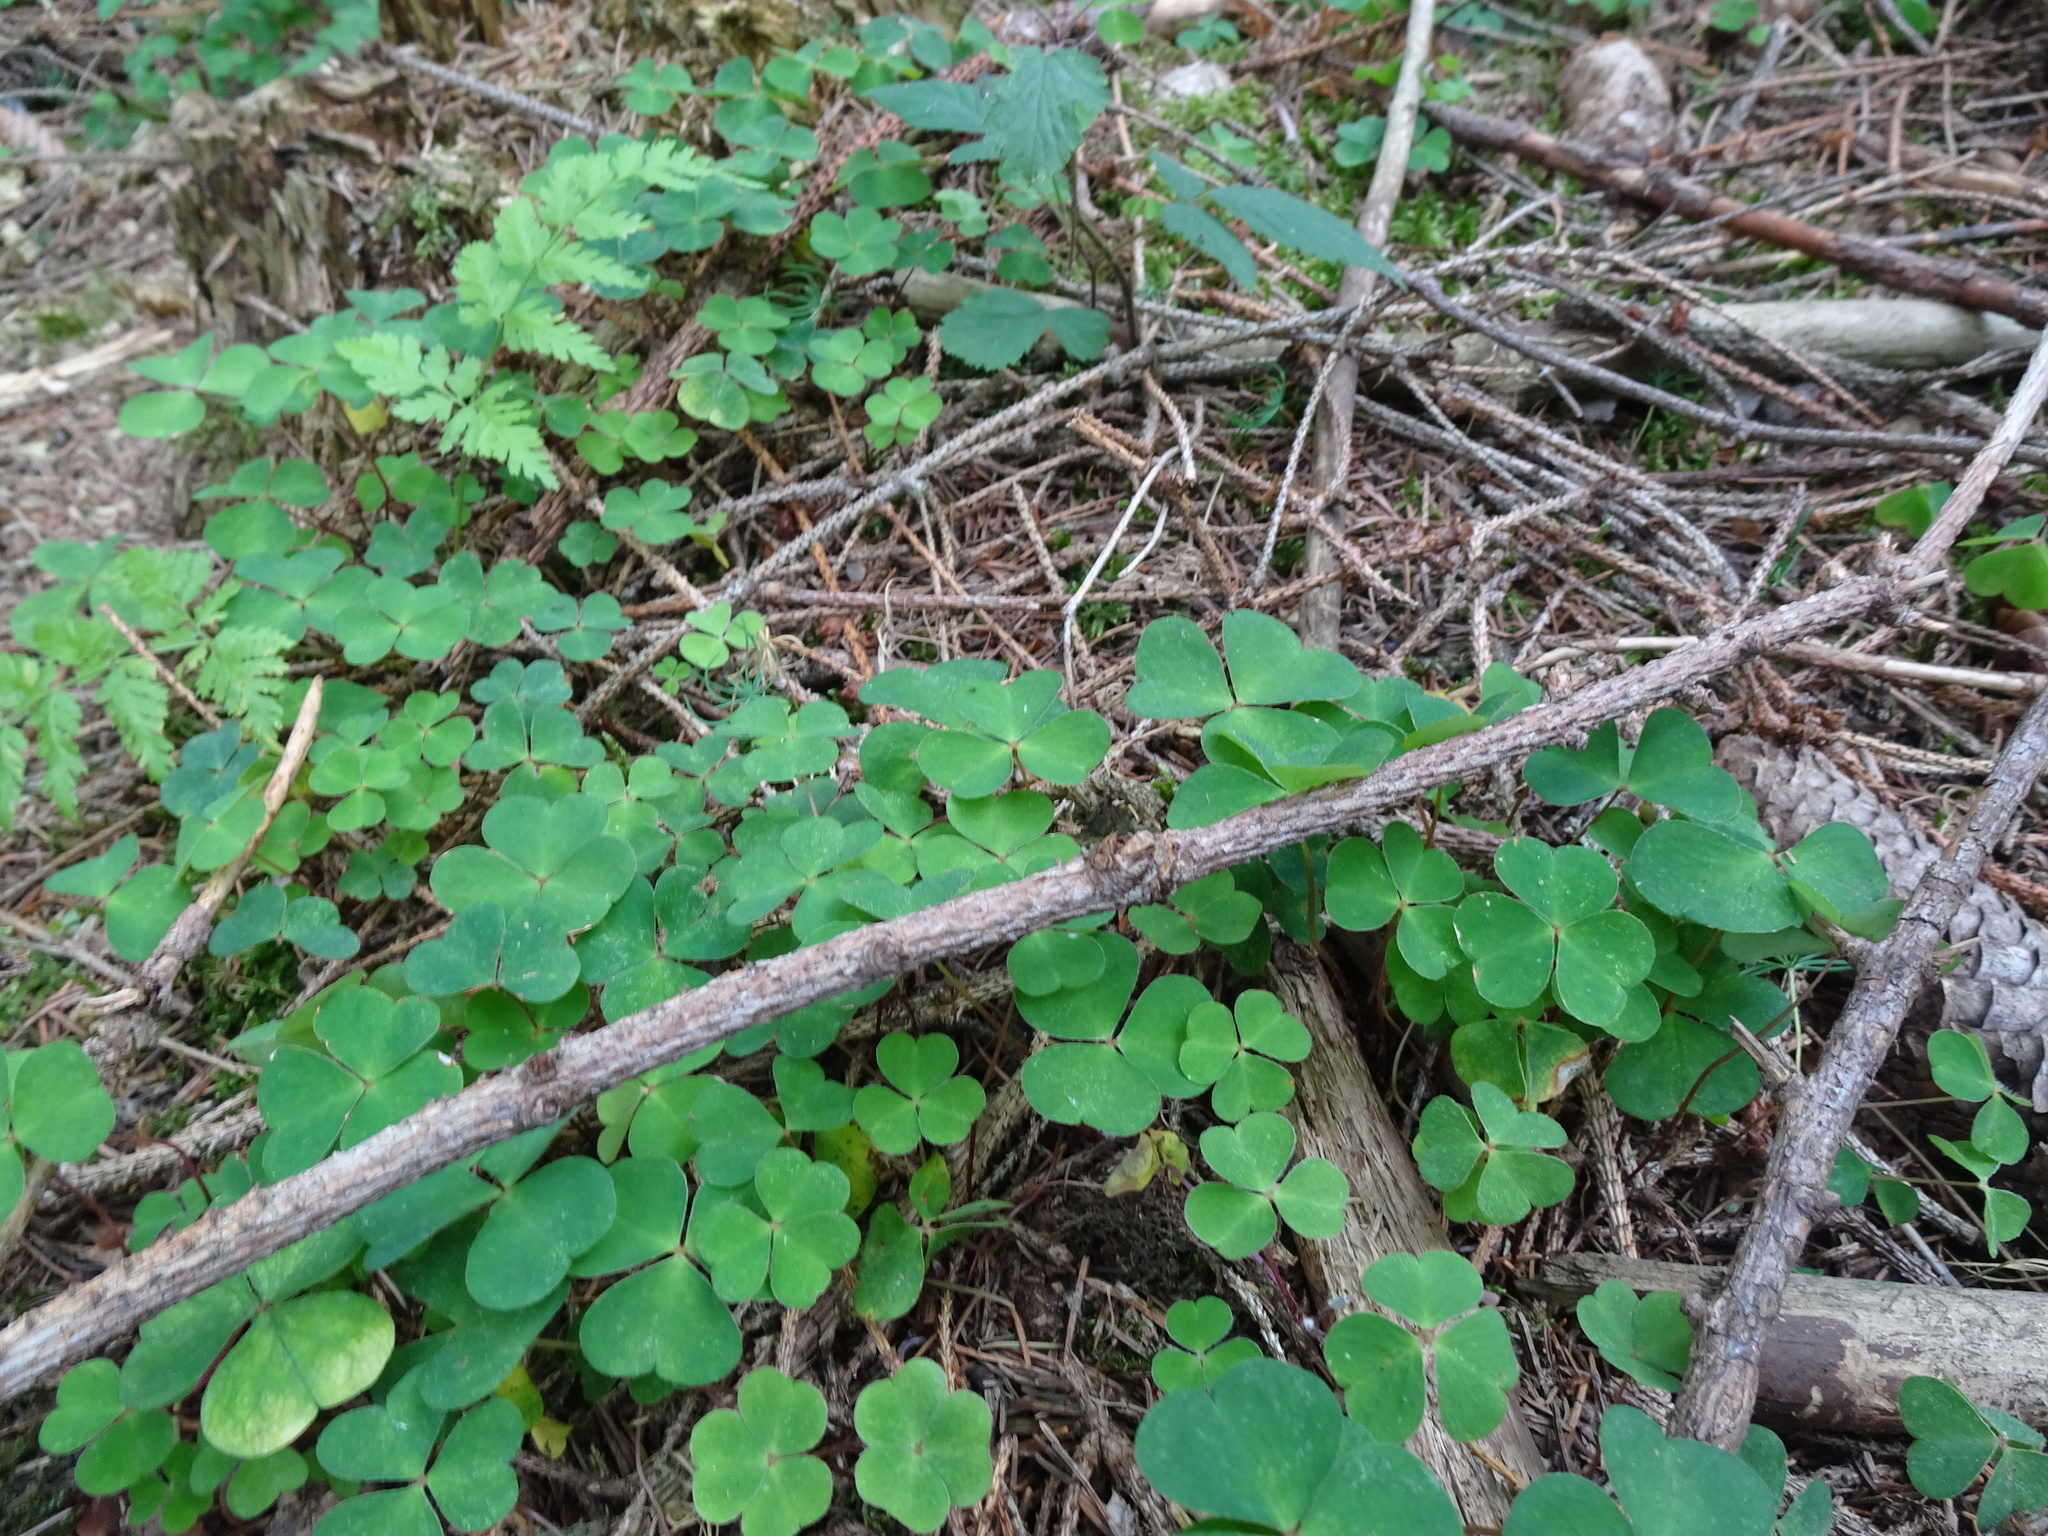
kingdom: Plantae
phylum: Tracheophyta
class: Magnoliopsida
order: Oxalidales
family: Oxalidaceae
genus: Oxalis
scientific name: Oxalis acetosella
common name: Wood-sorrel
